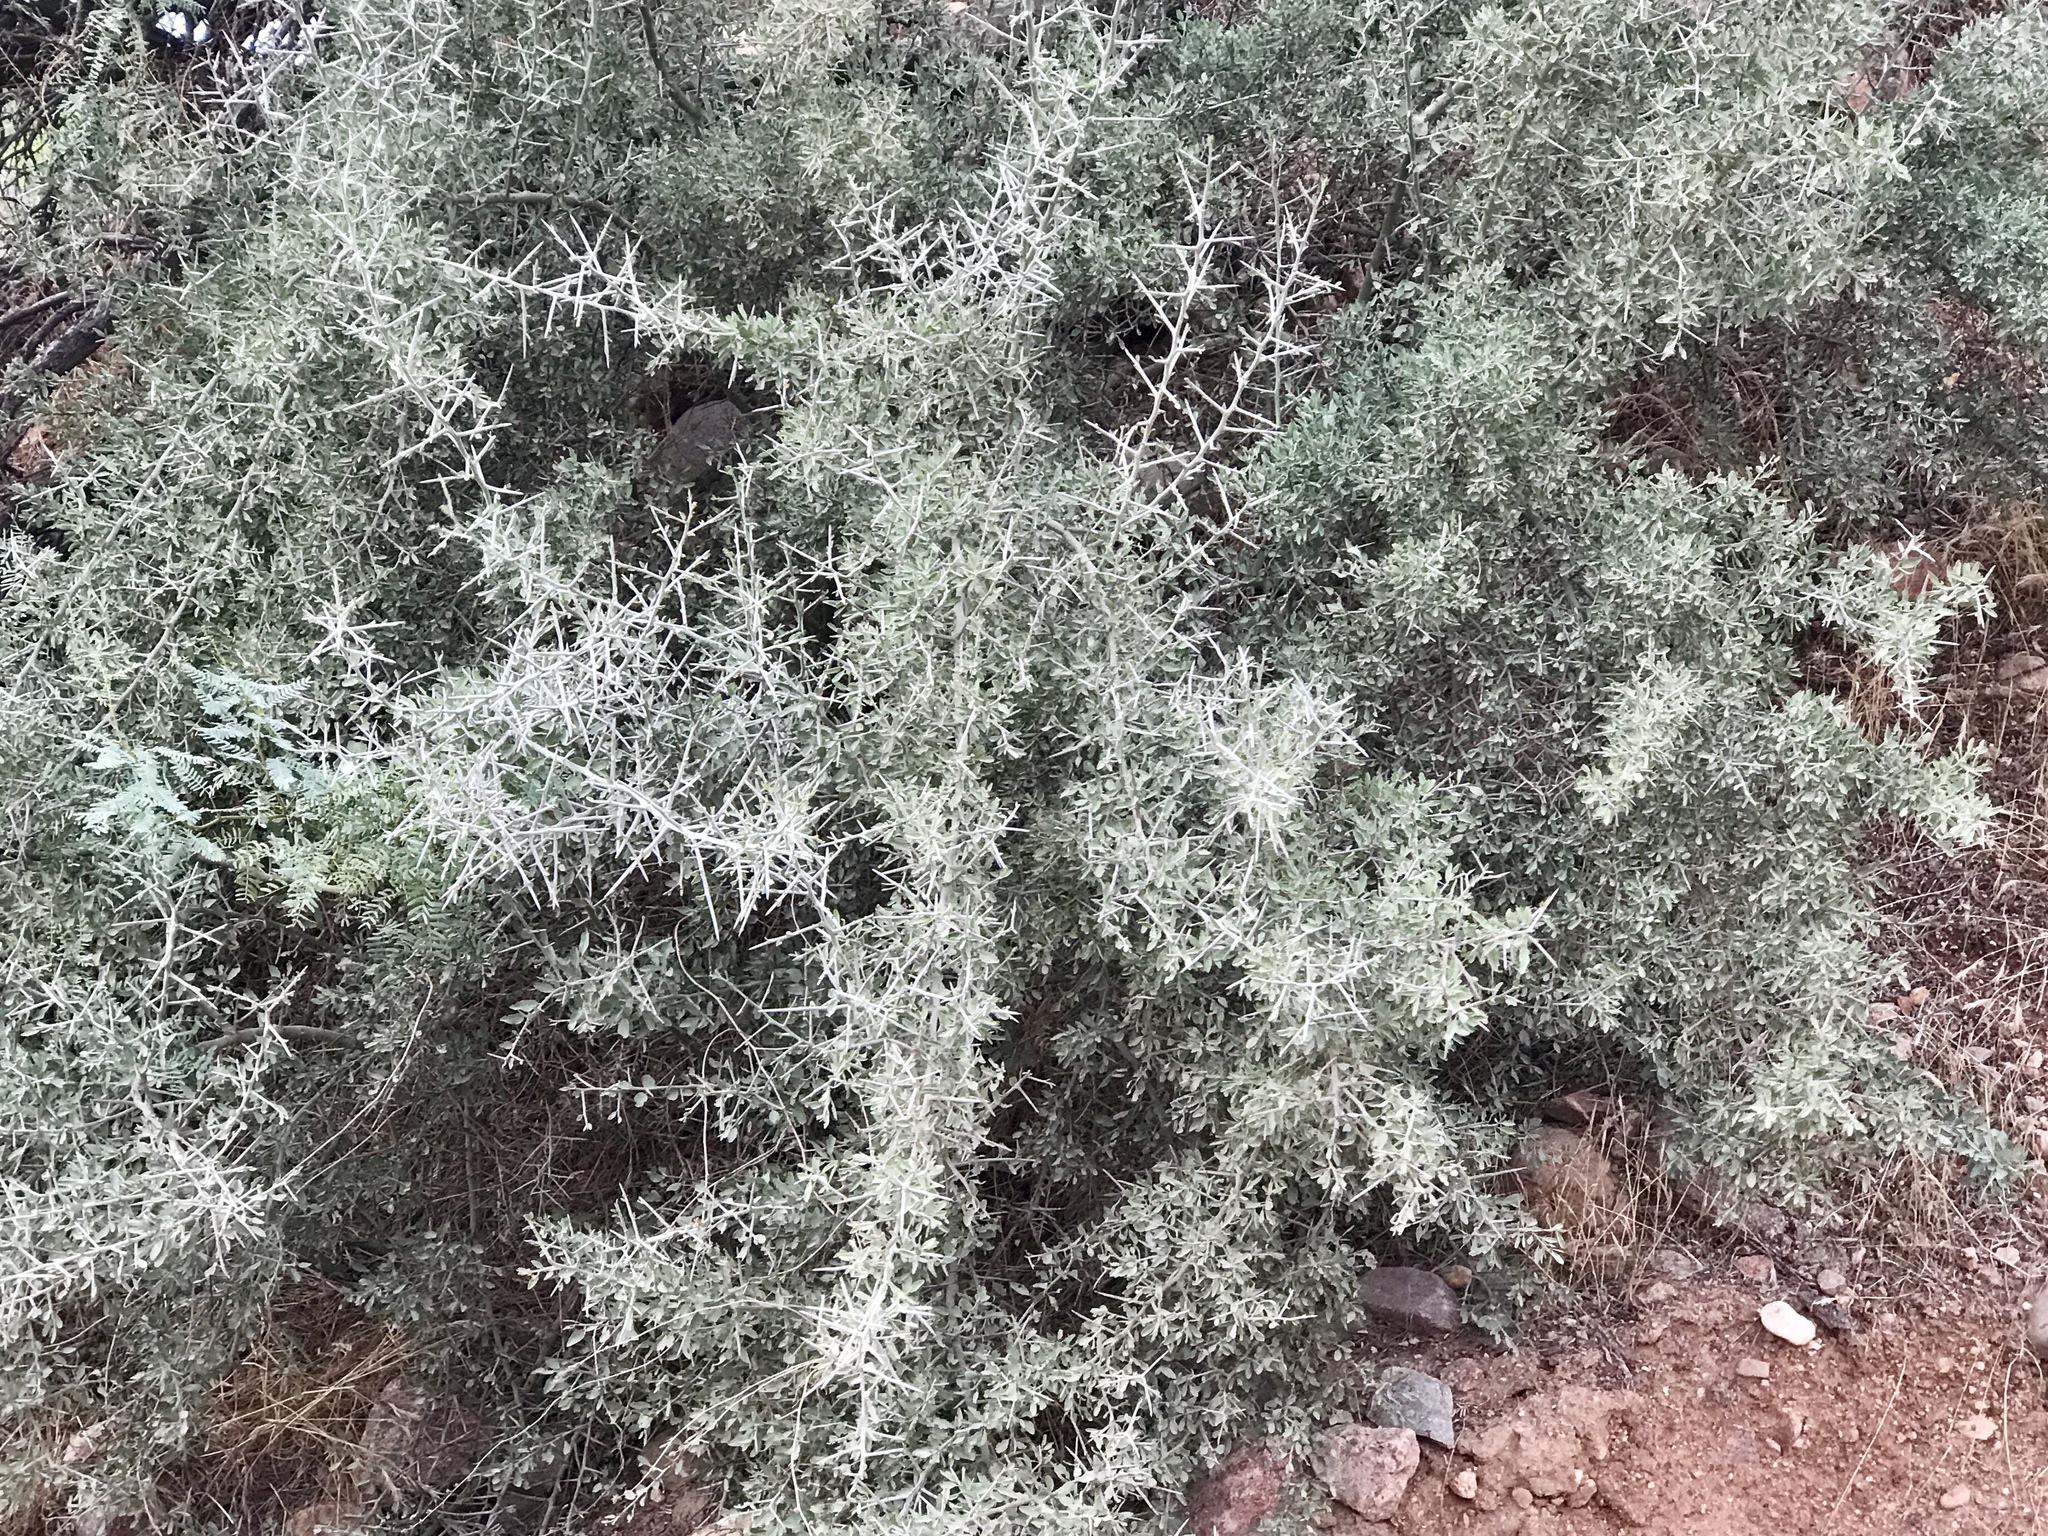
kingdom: Plantae
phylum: Tracheophyta
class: Magnoliopsida
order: Rosales
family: Rhamnaceae
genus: Sarcomphalus
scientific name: Sarcomphalus obtusifolius
